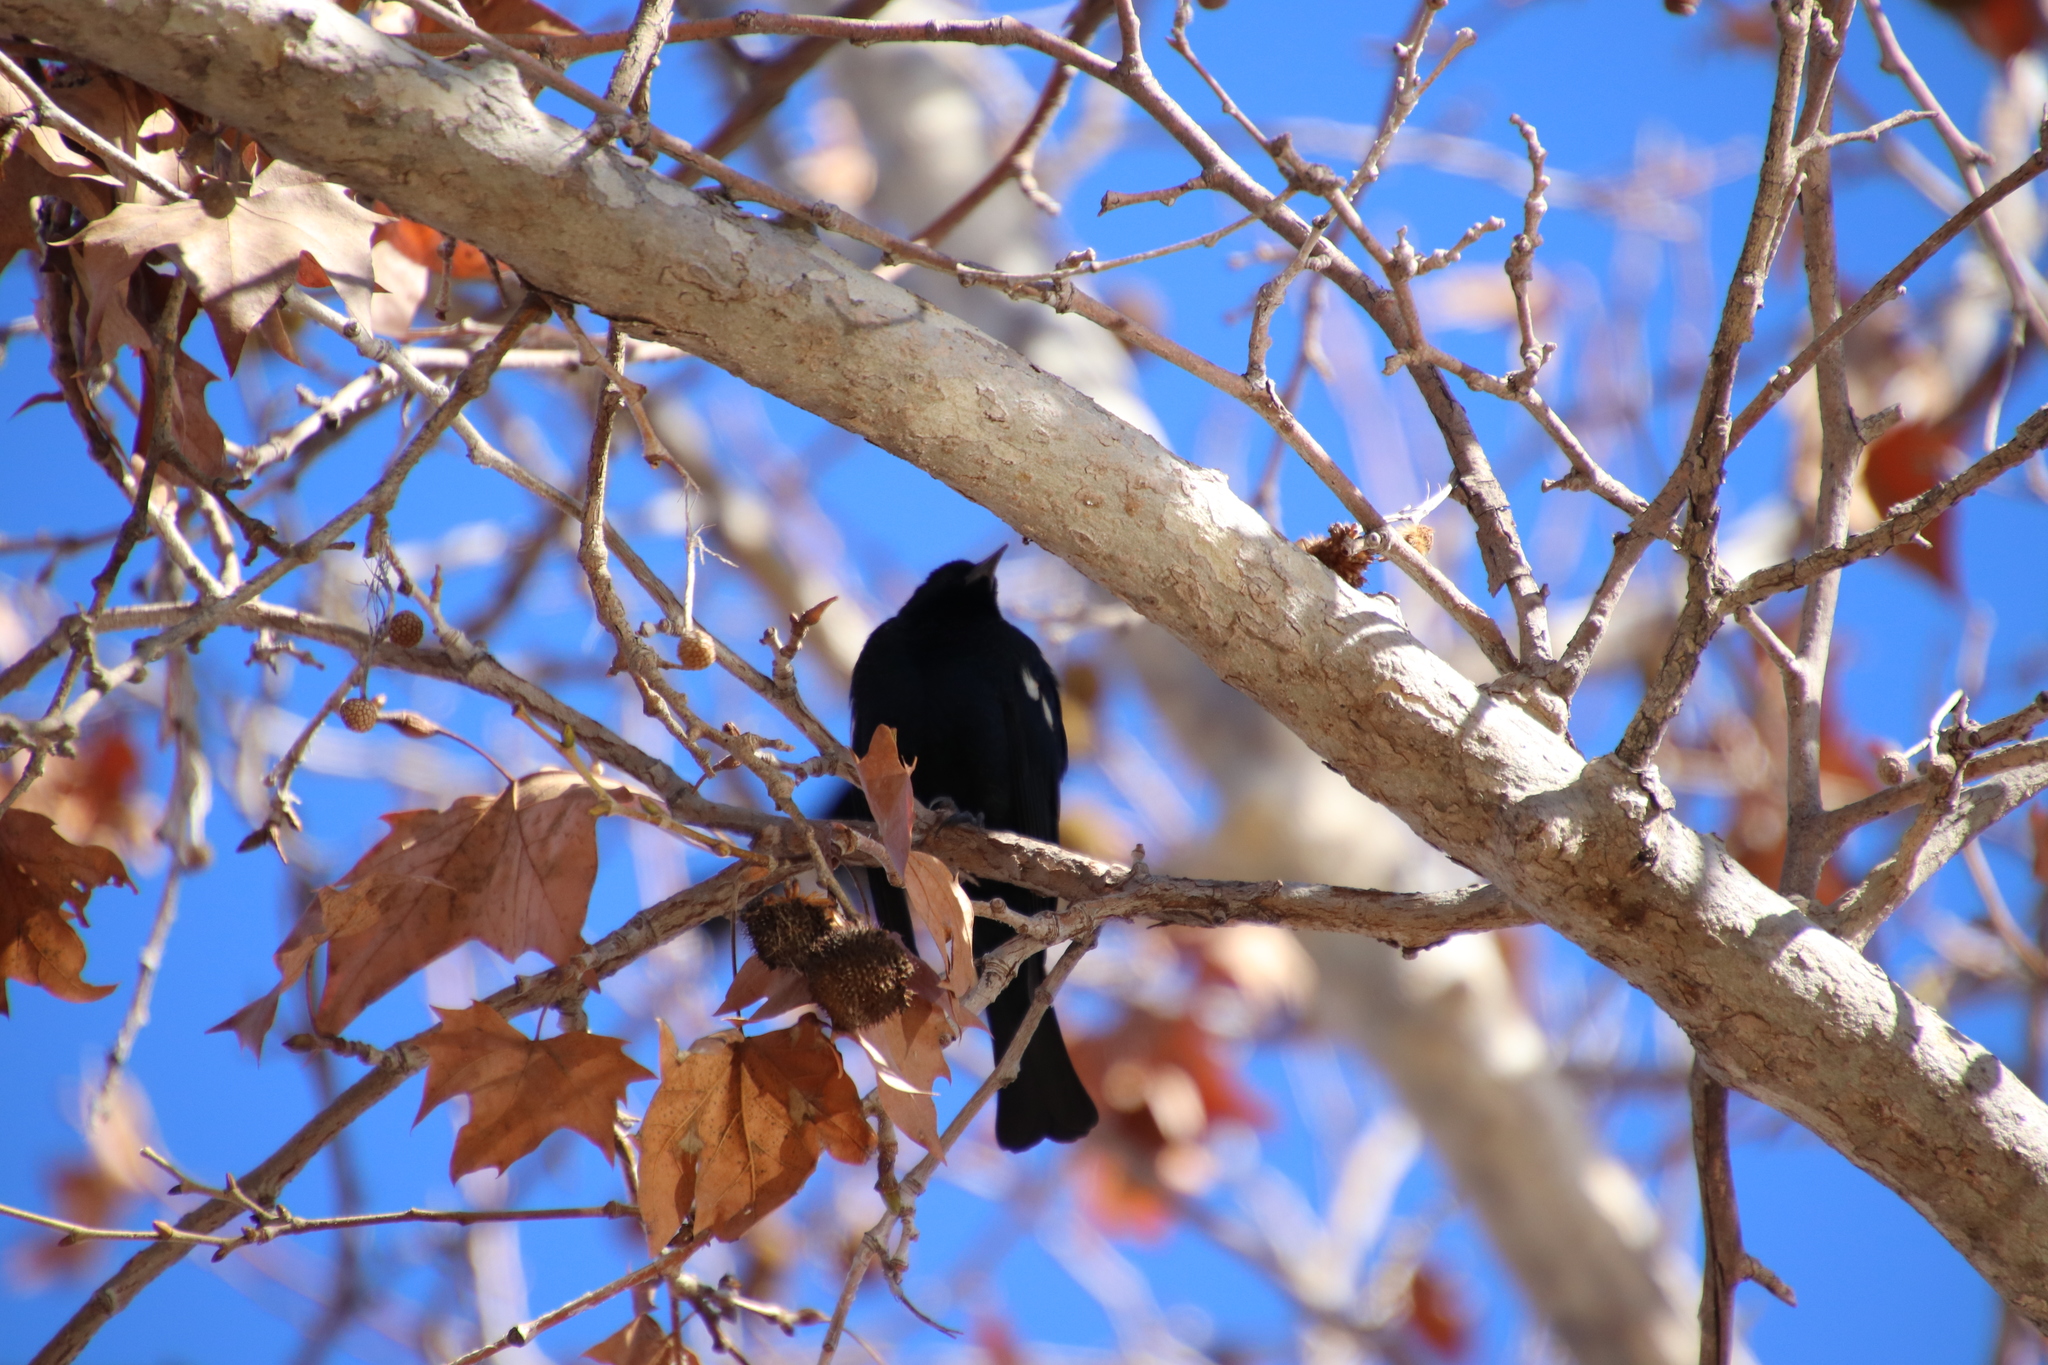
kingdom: Animalia
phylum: Chordata
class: Aves
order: Passeriformes
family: Icteridae
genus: Agelaius
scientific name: Agelaius tricolor
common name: Tricolored blackbird
